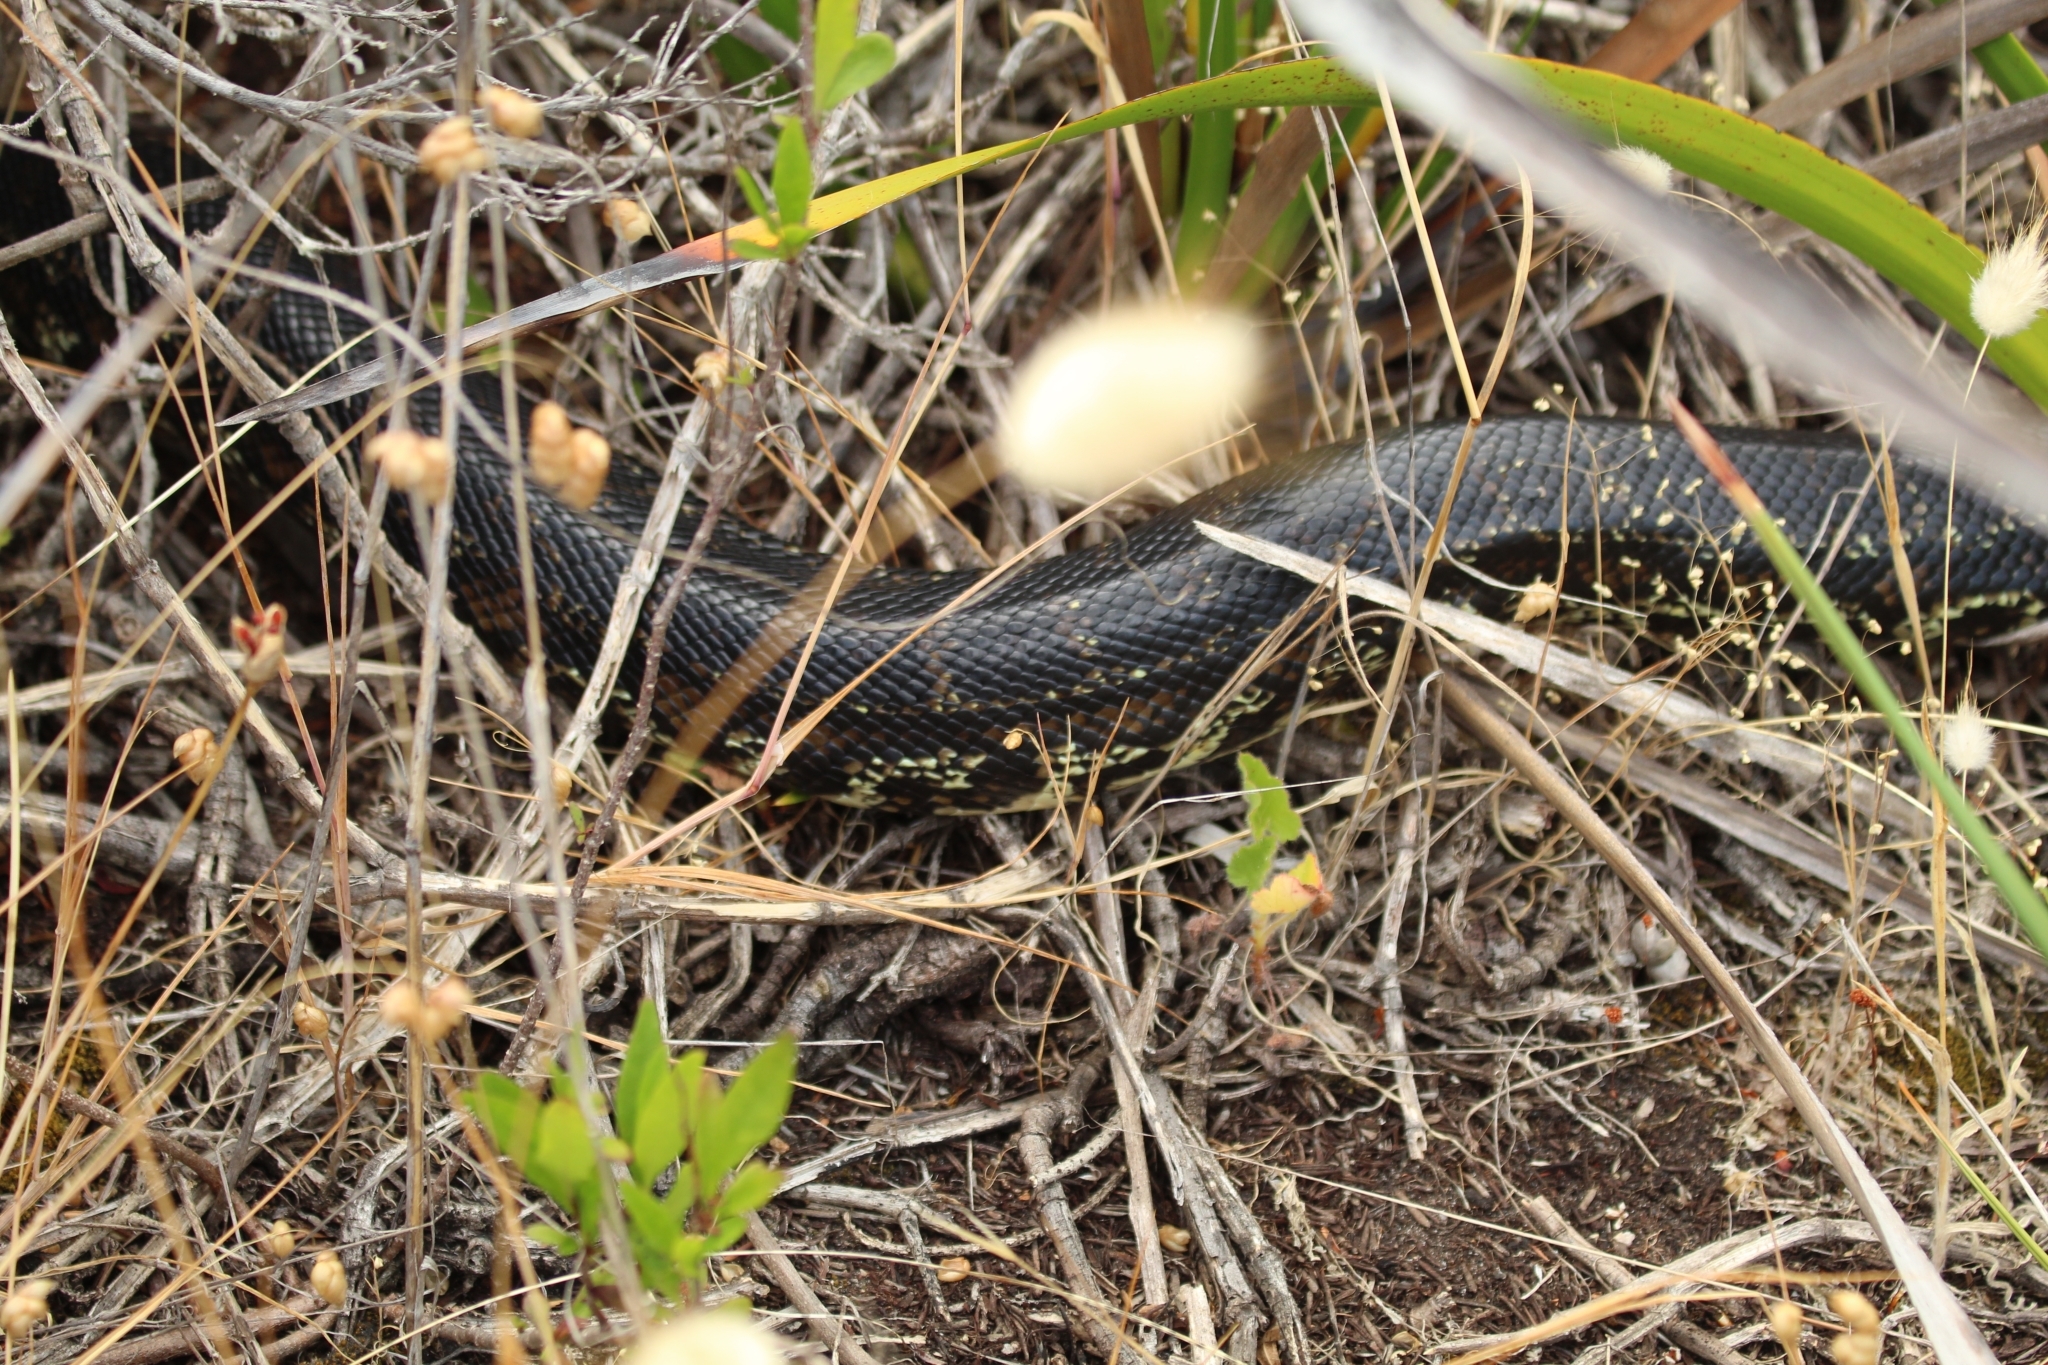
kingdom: Animalia
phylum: Chordata
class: Squamata
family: Pythonidae
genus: Morelia
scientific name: Morelia imbricata
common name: Carpet python
